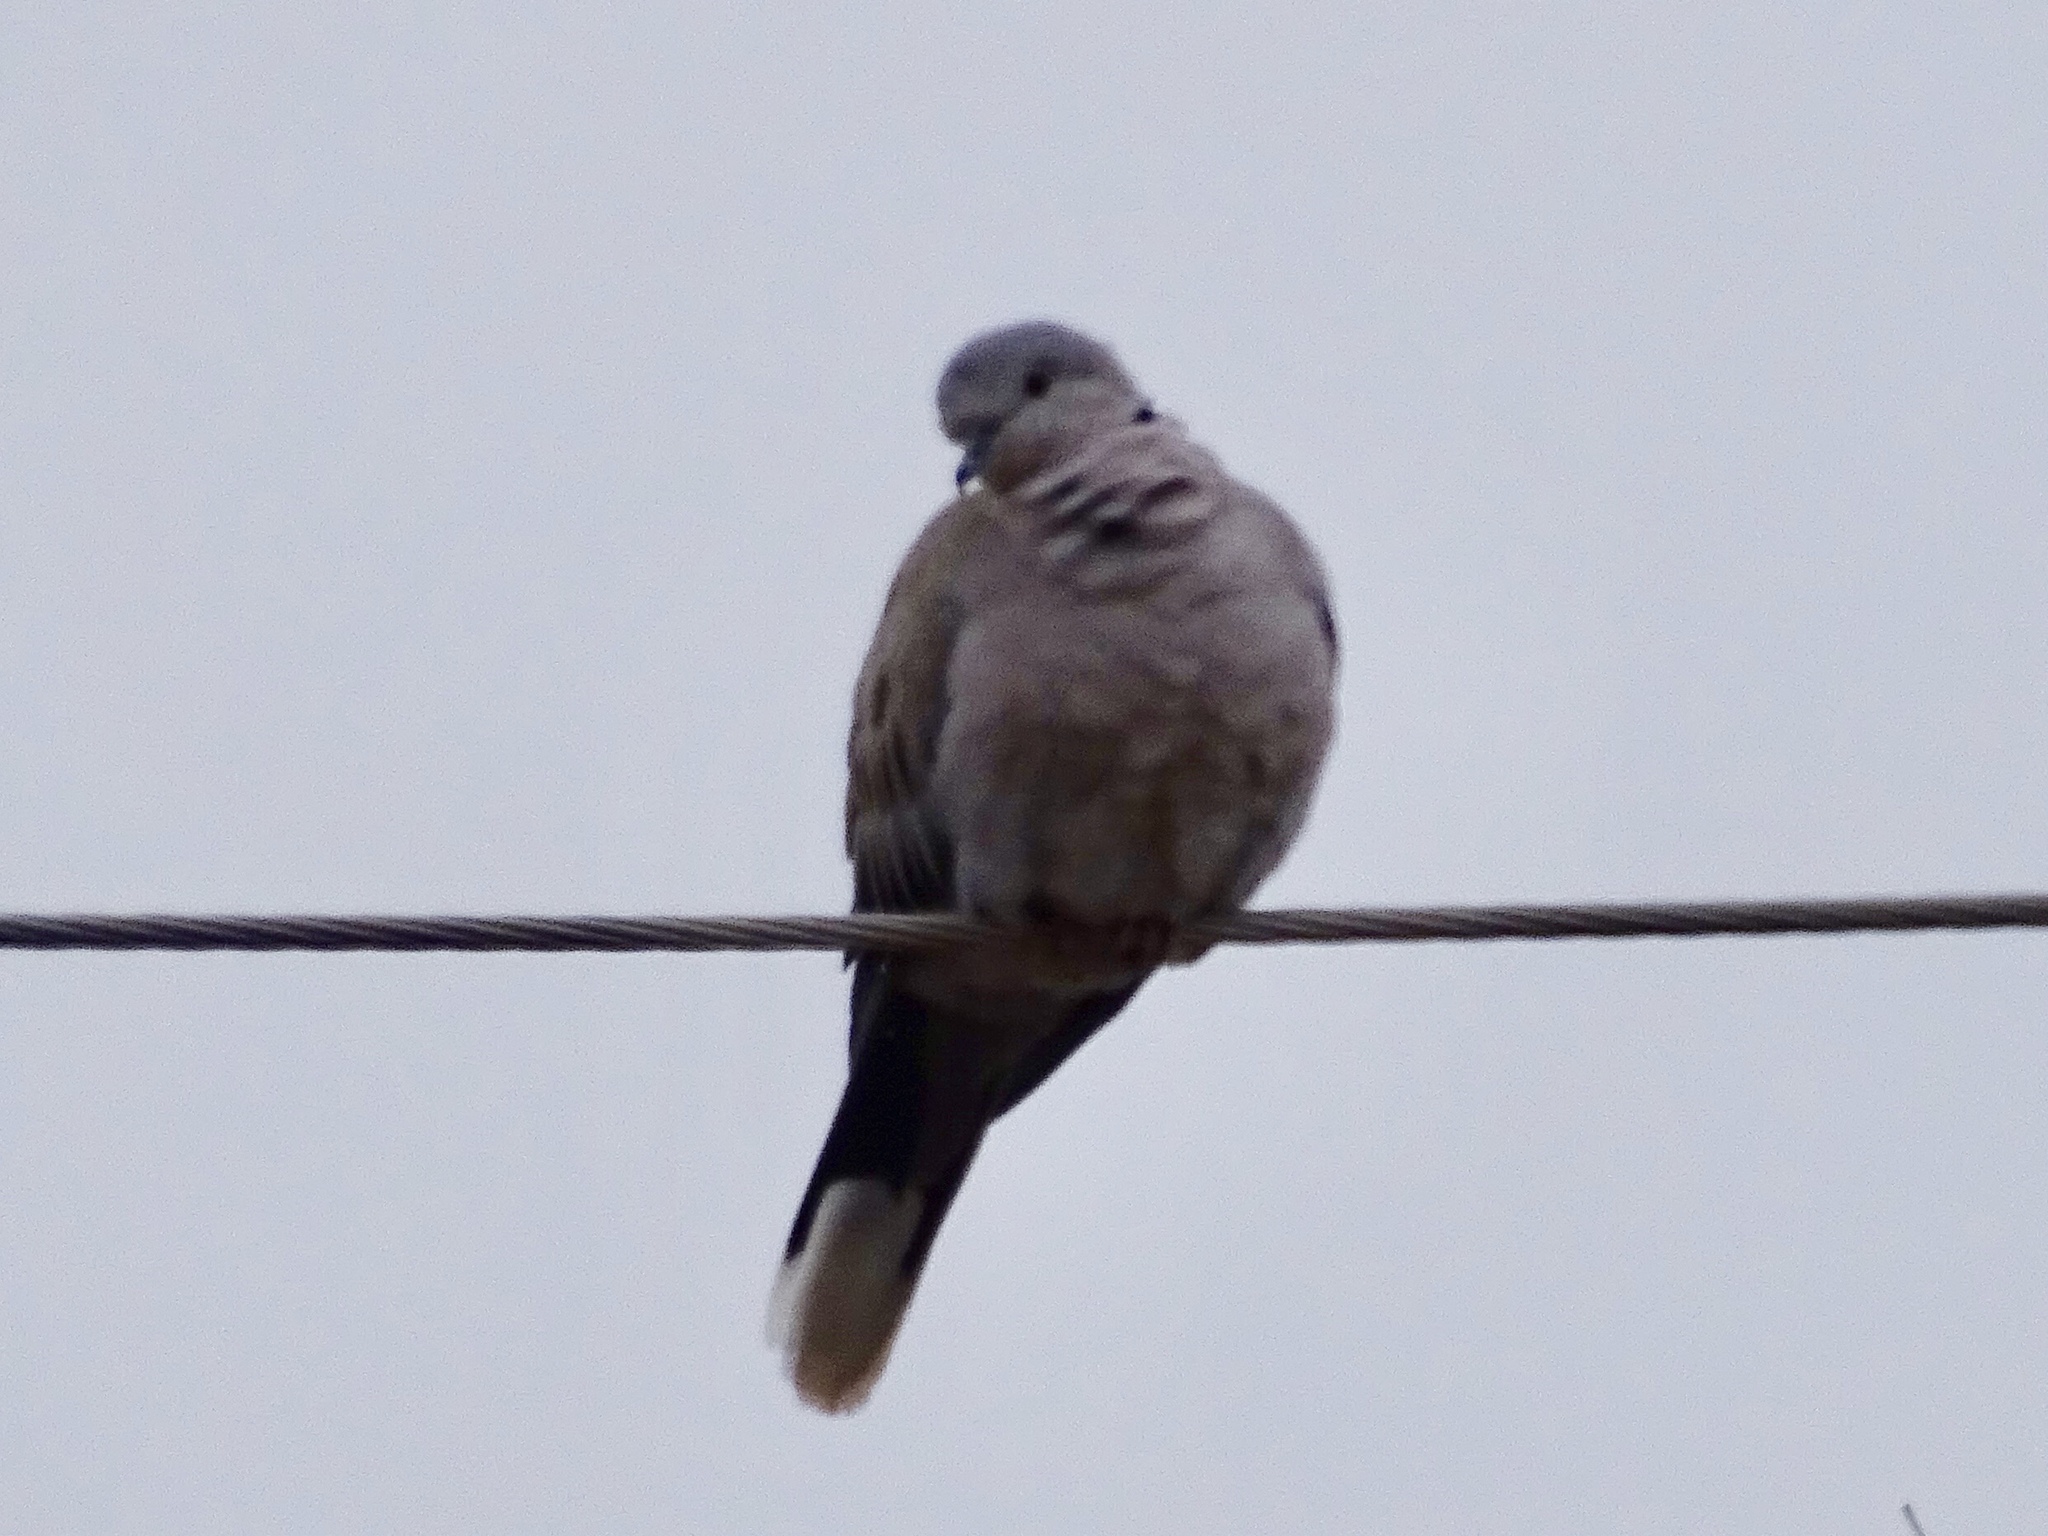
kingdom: Animalia
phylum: Chordata
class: Aves
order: Columbiformes
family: Columbidae
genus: Streptopelia
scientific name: Streptopelia decaocto
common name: Eurasian collared dove
